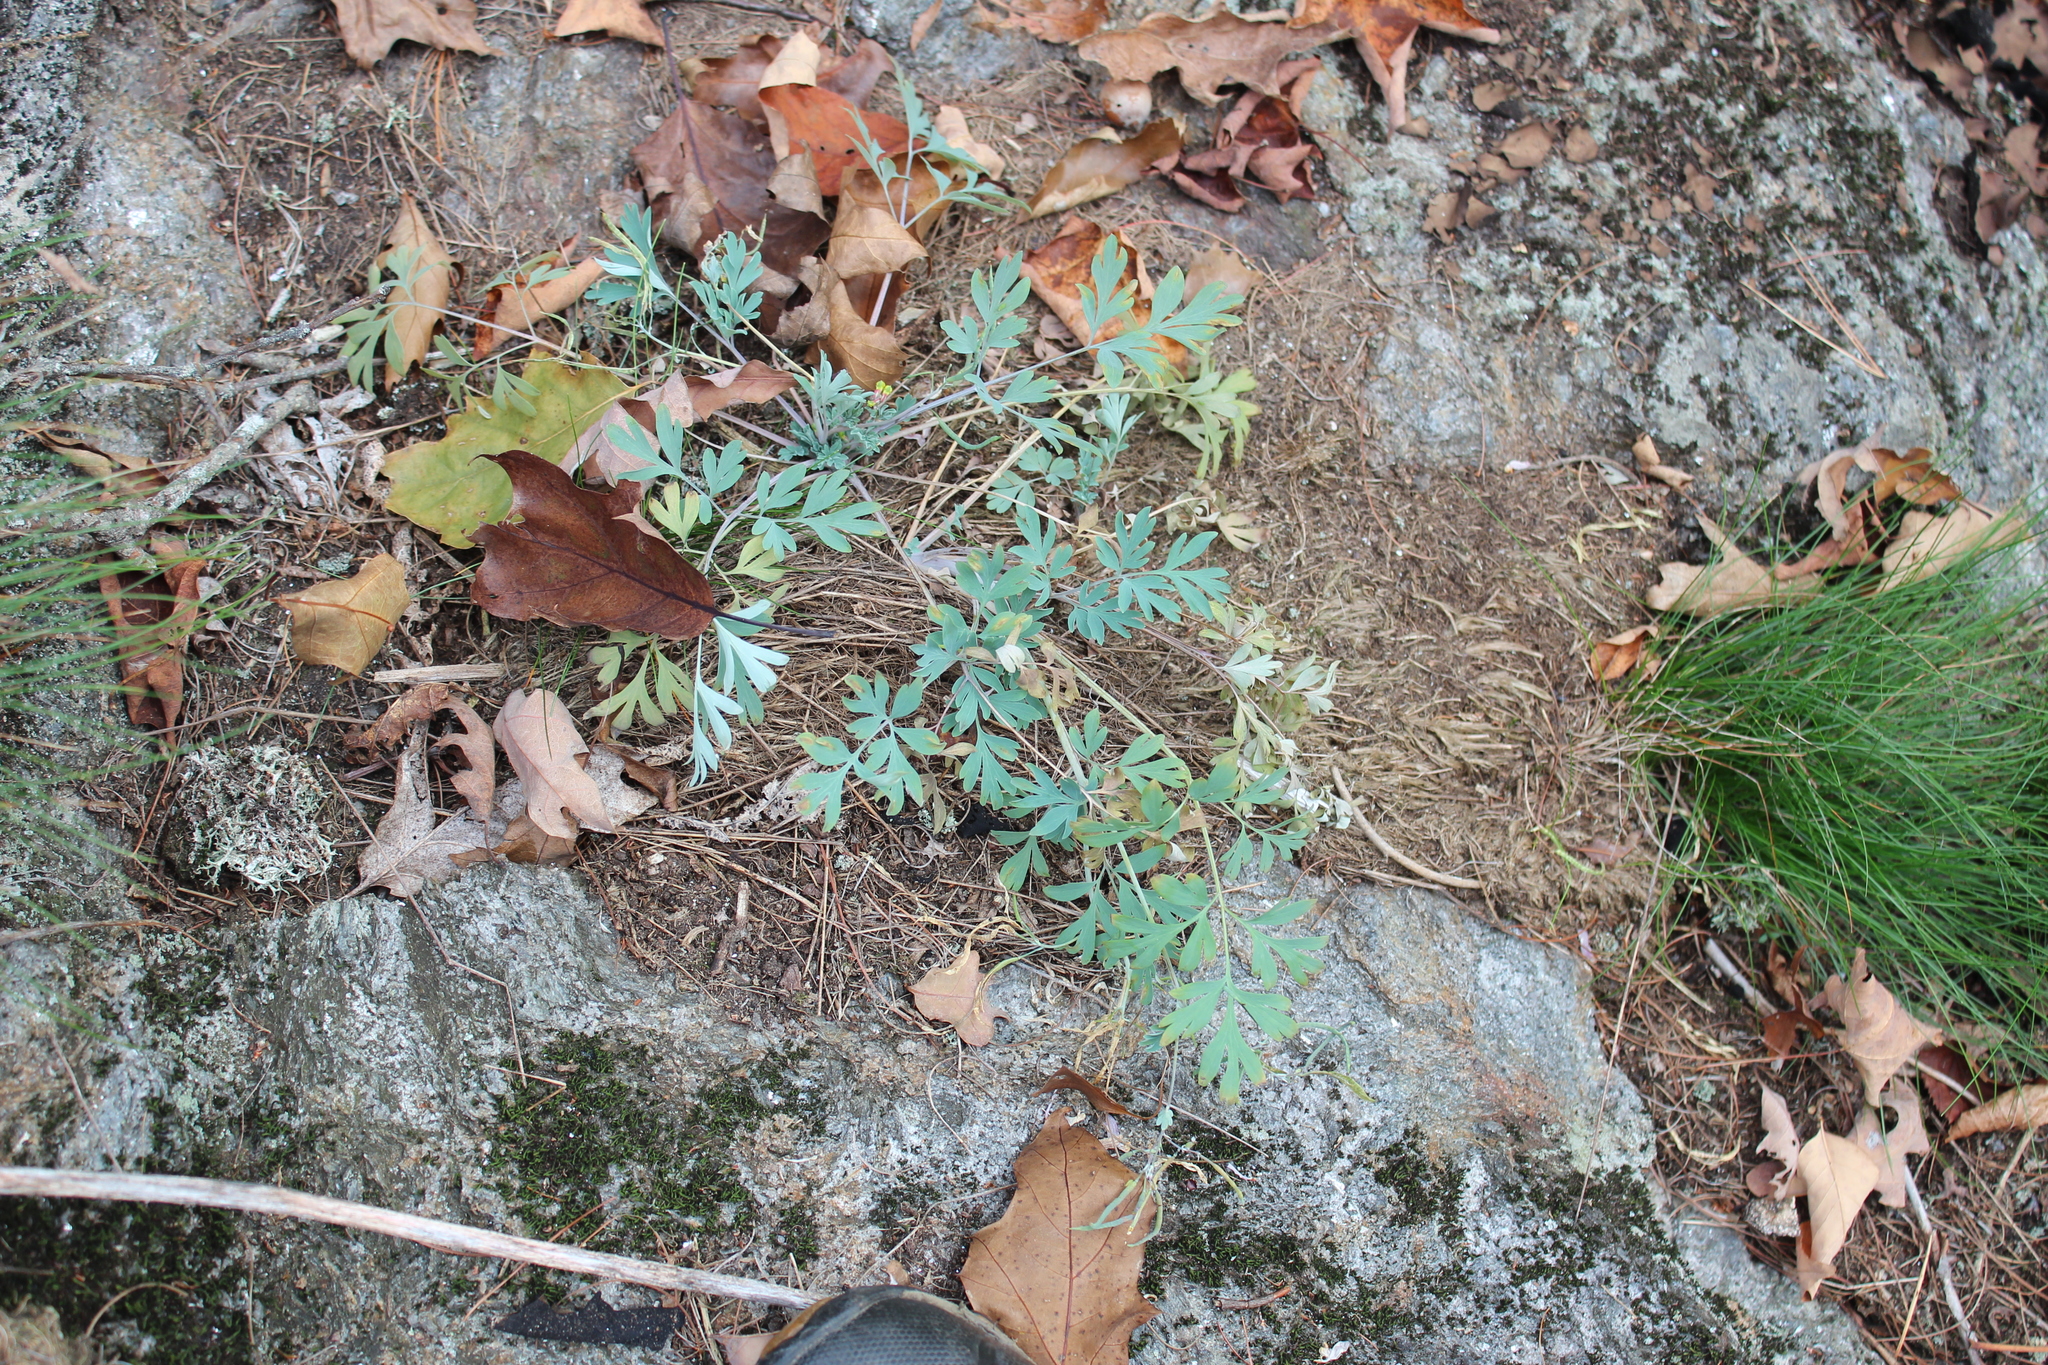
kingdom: Plantae
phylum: Tracheophyta
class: Magnoliopsida
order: Ranunculales
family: Papaveraceae
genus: Capnoides
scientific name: Capnoides sempervirens
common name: Rock harlequin
